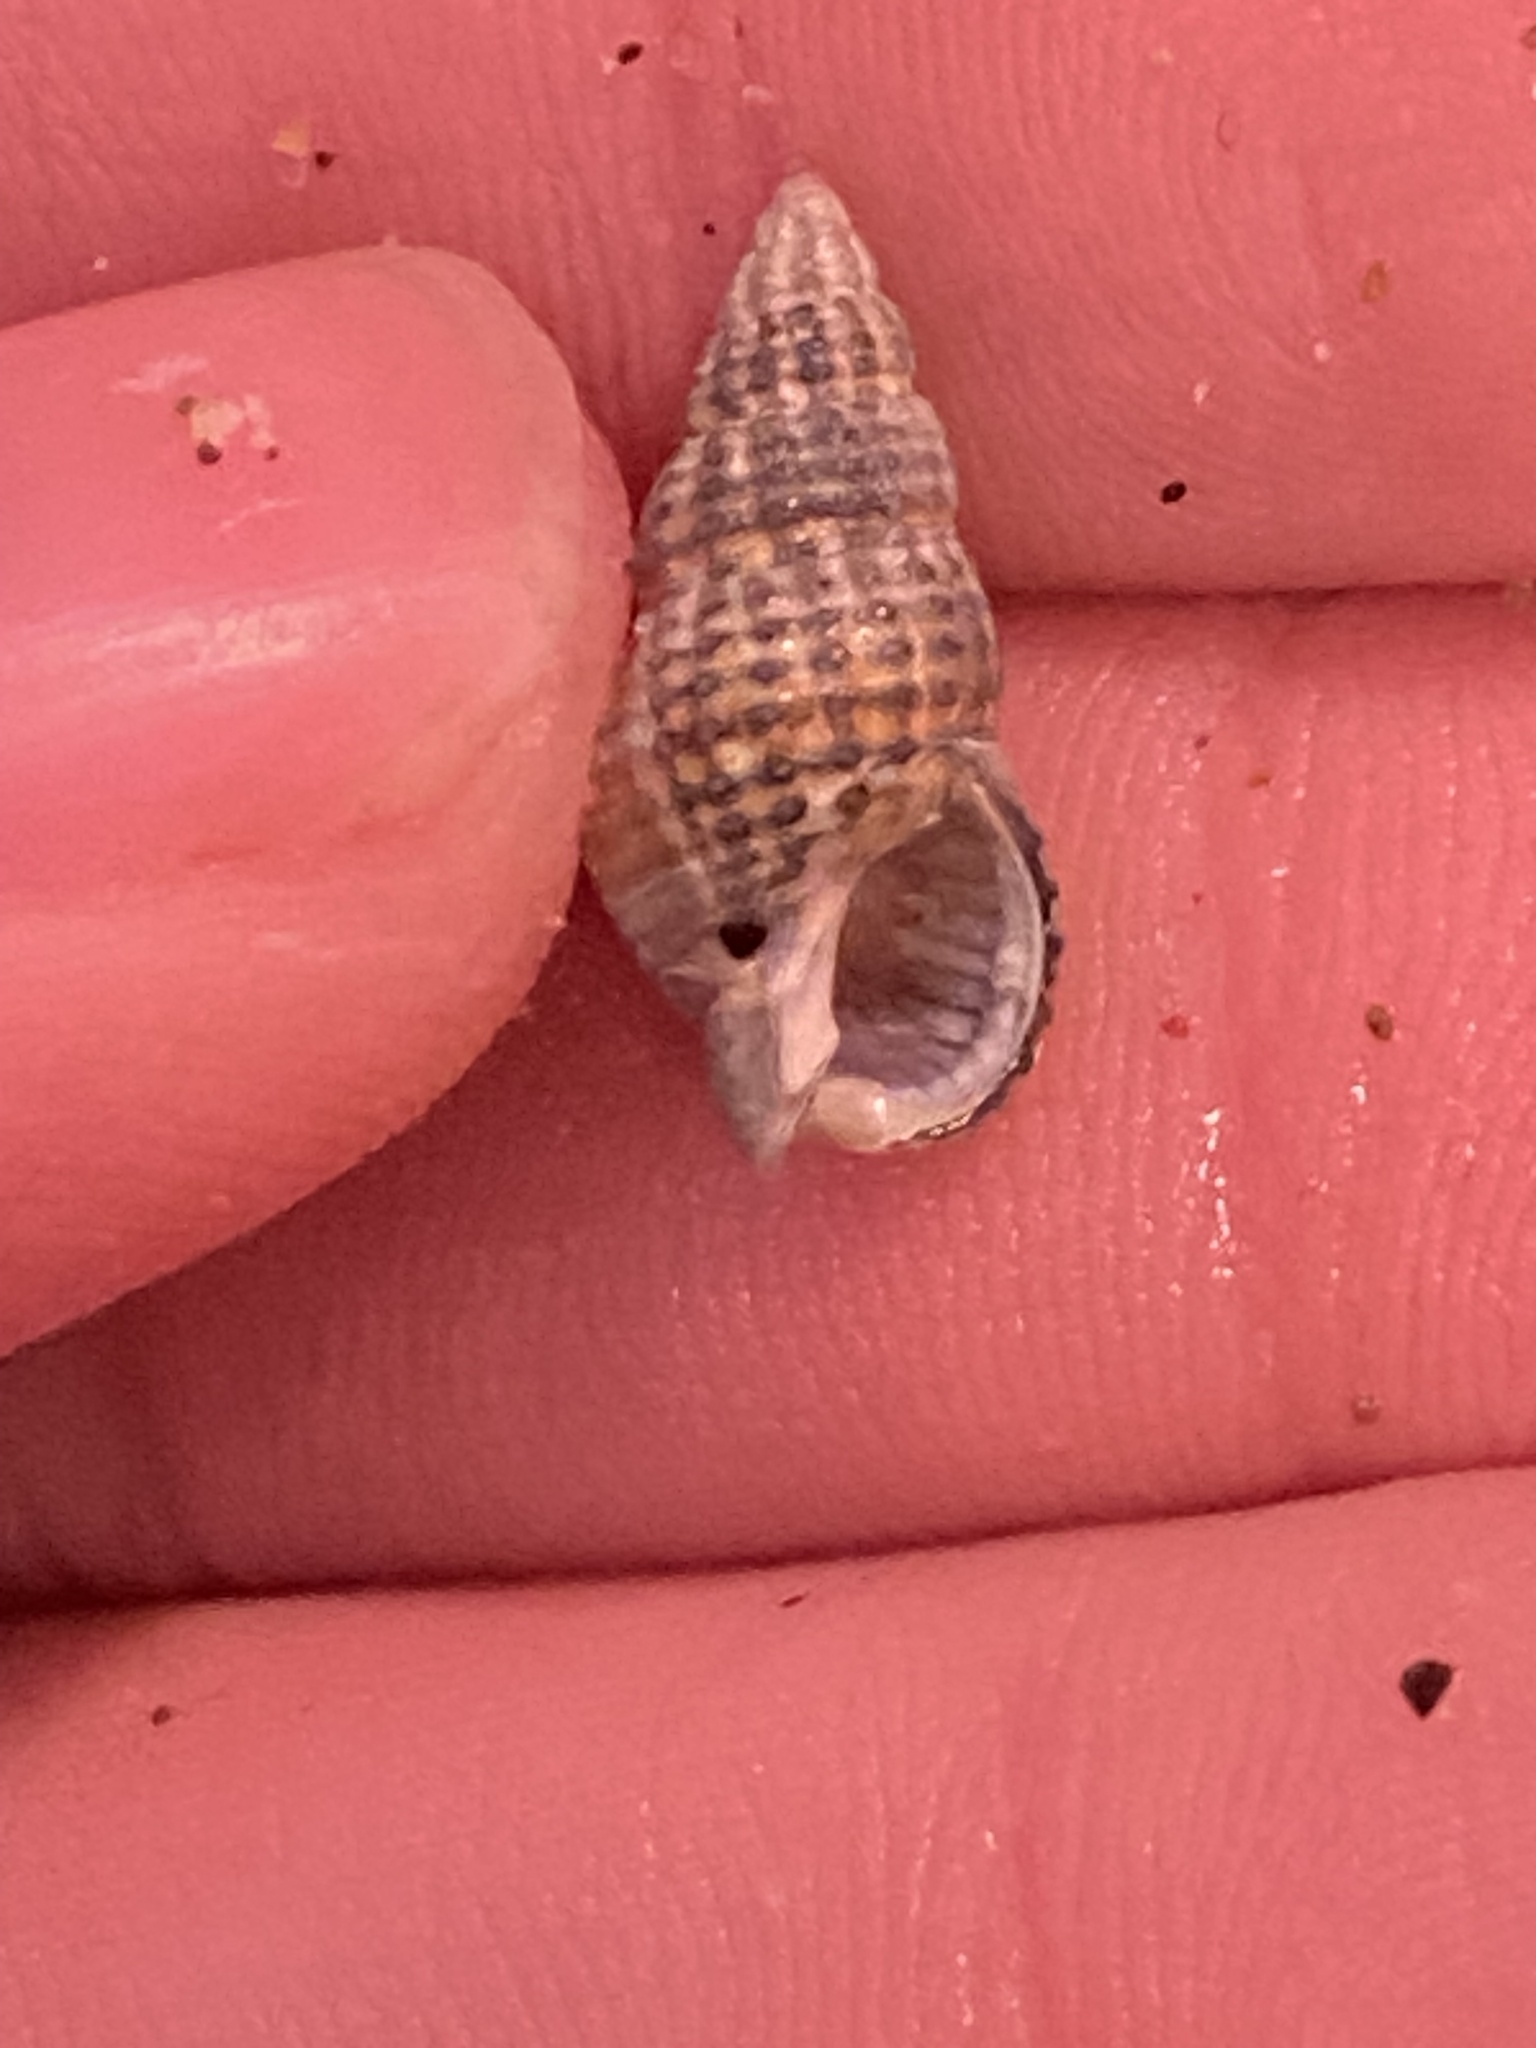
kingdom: Animalia
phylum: Mollusca
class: Gastropoda
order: Neogastropoda
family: Nassariidae
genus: Nassarius
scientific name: Nassarius mendicus
